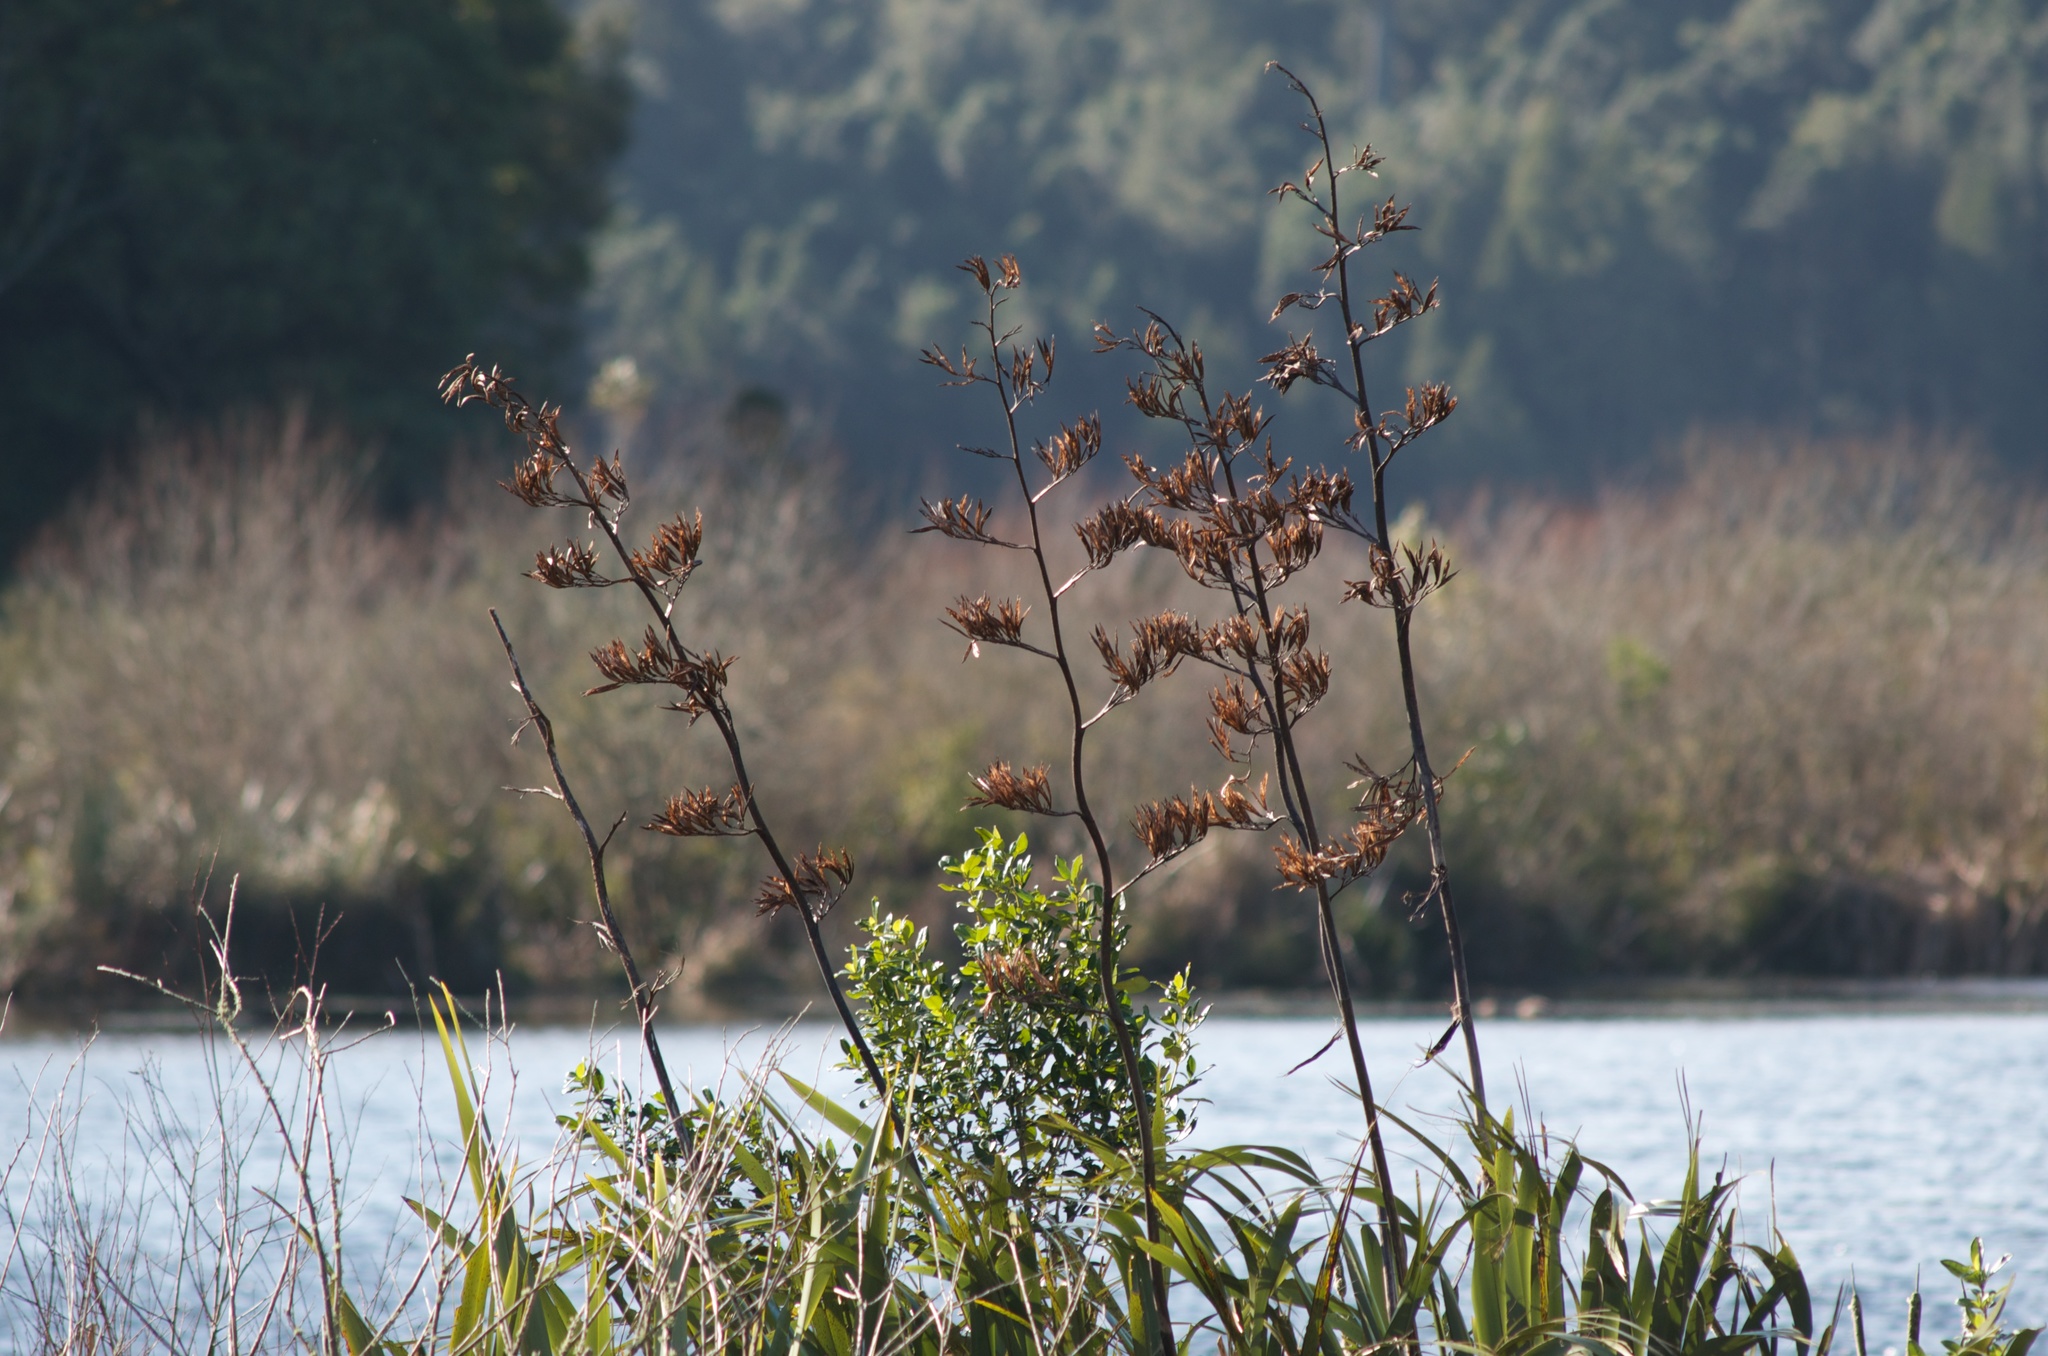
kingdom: Plantae
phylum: Tracheophyta
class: Liliopsida
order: Asparagales
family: Asphodelaceae
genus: Phormium
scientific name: Phormium tenax
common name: New zealand flax
